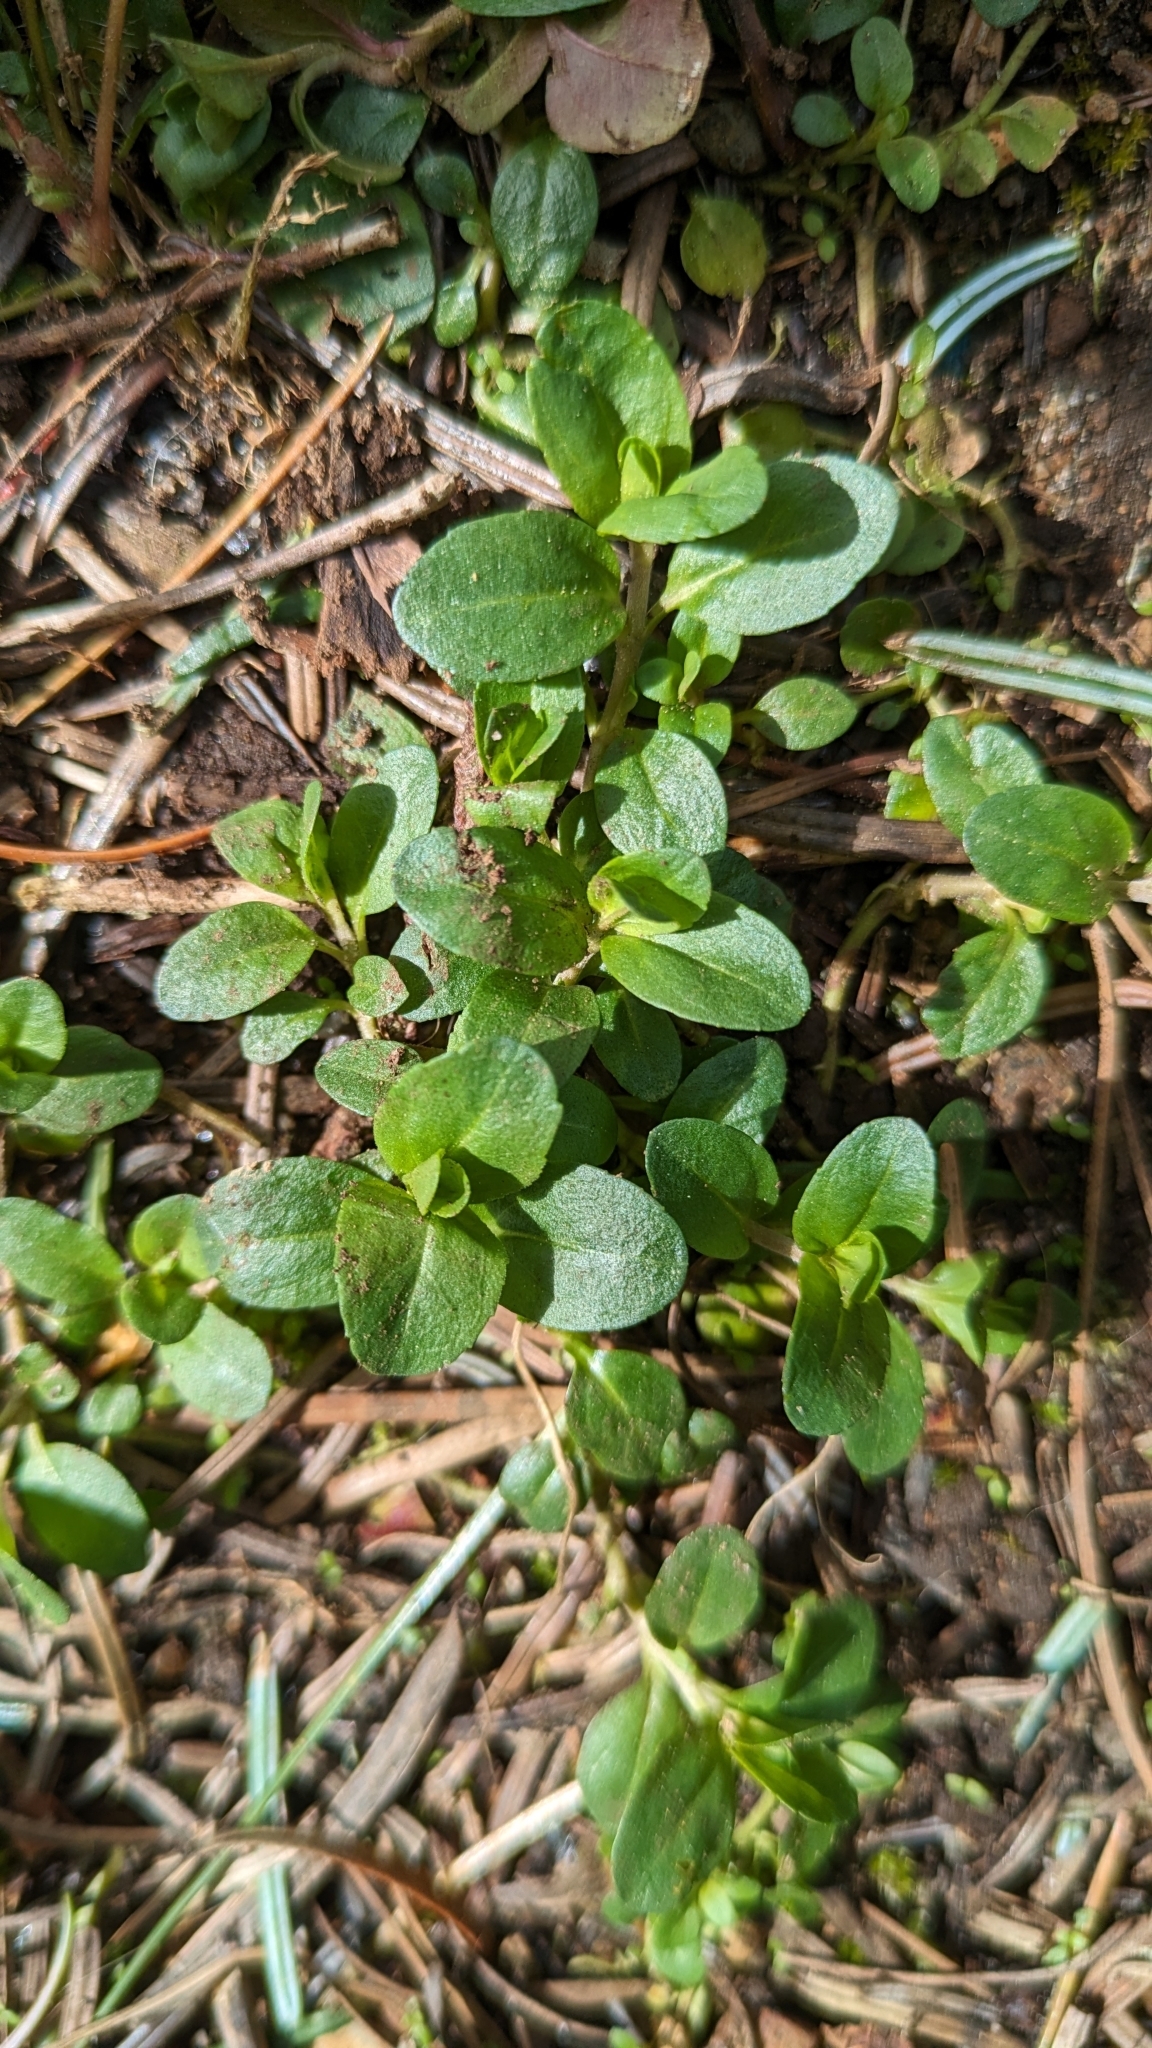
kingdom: Plantae
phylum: Tracheophyta
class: Magnoliopsida
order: Lamiales
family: Plantaginaceae
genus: Veronica
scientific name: Veronica serpyllifolia
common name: Thyme-leaved speedwell
